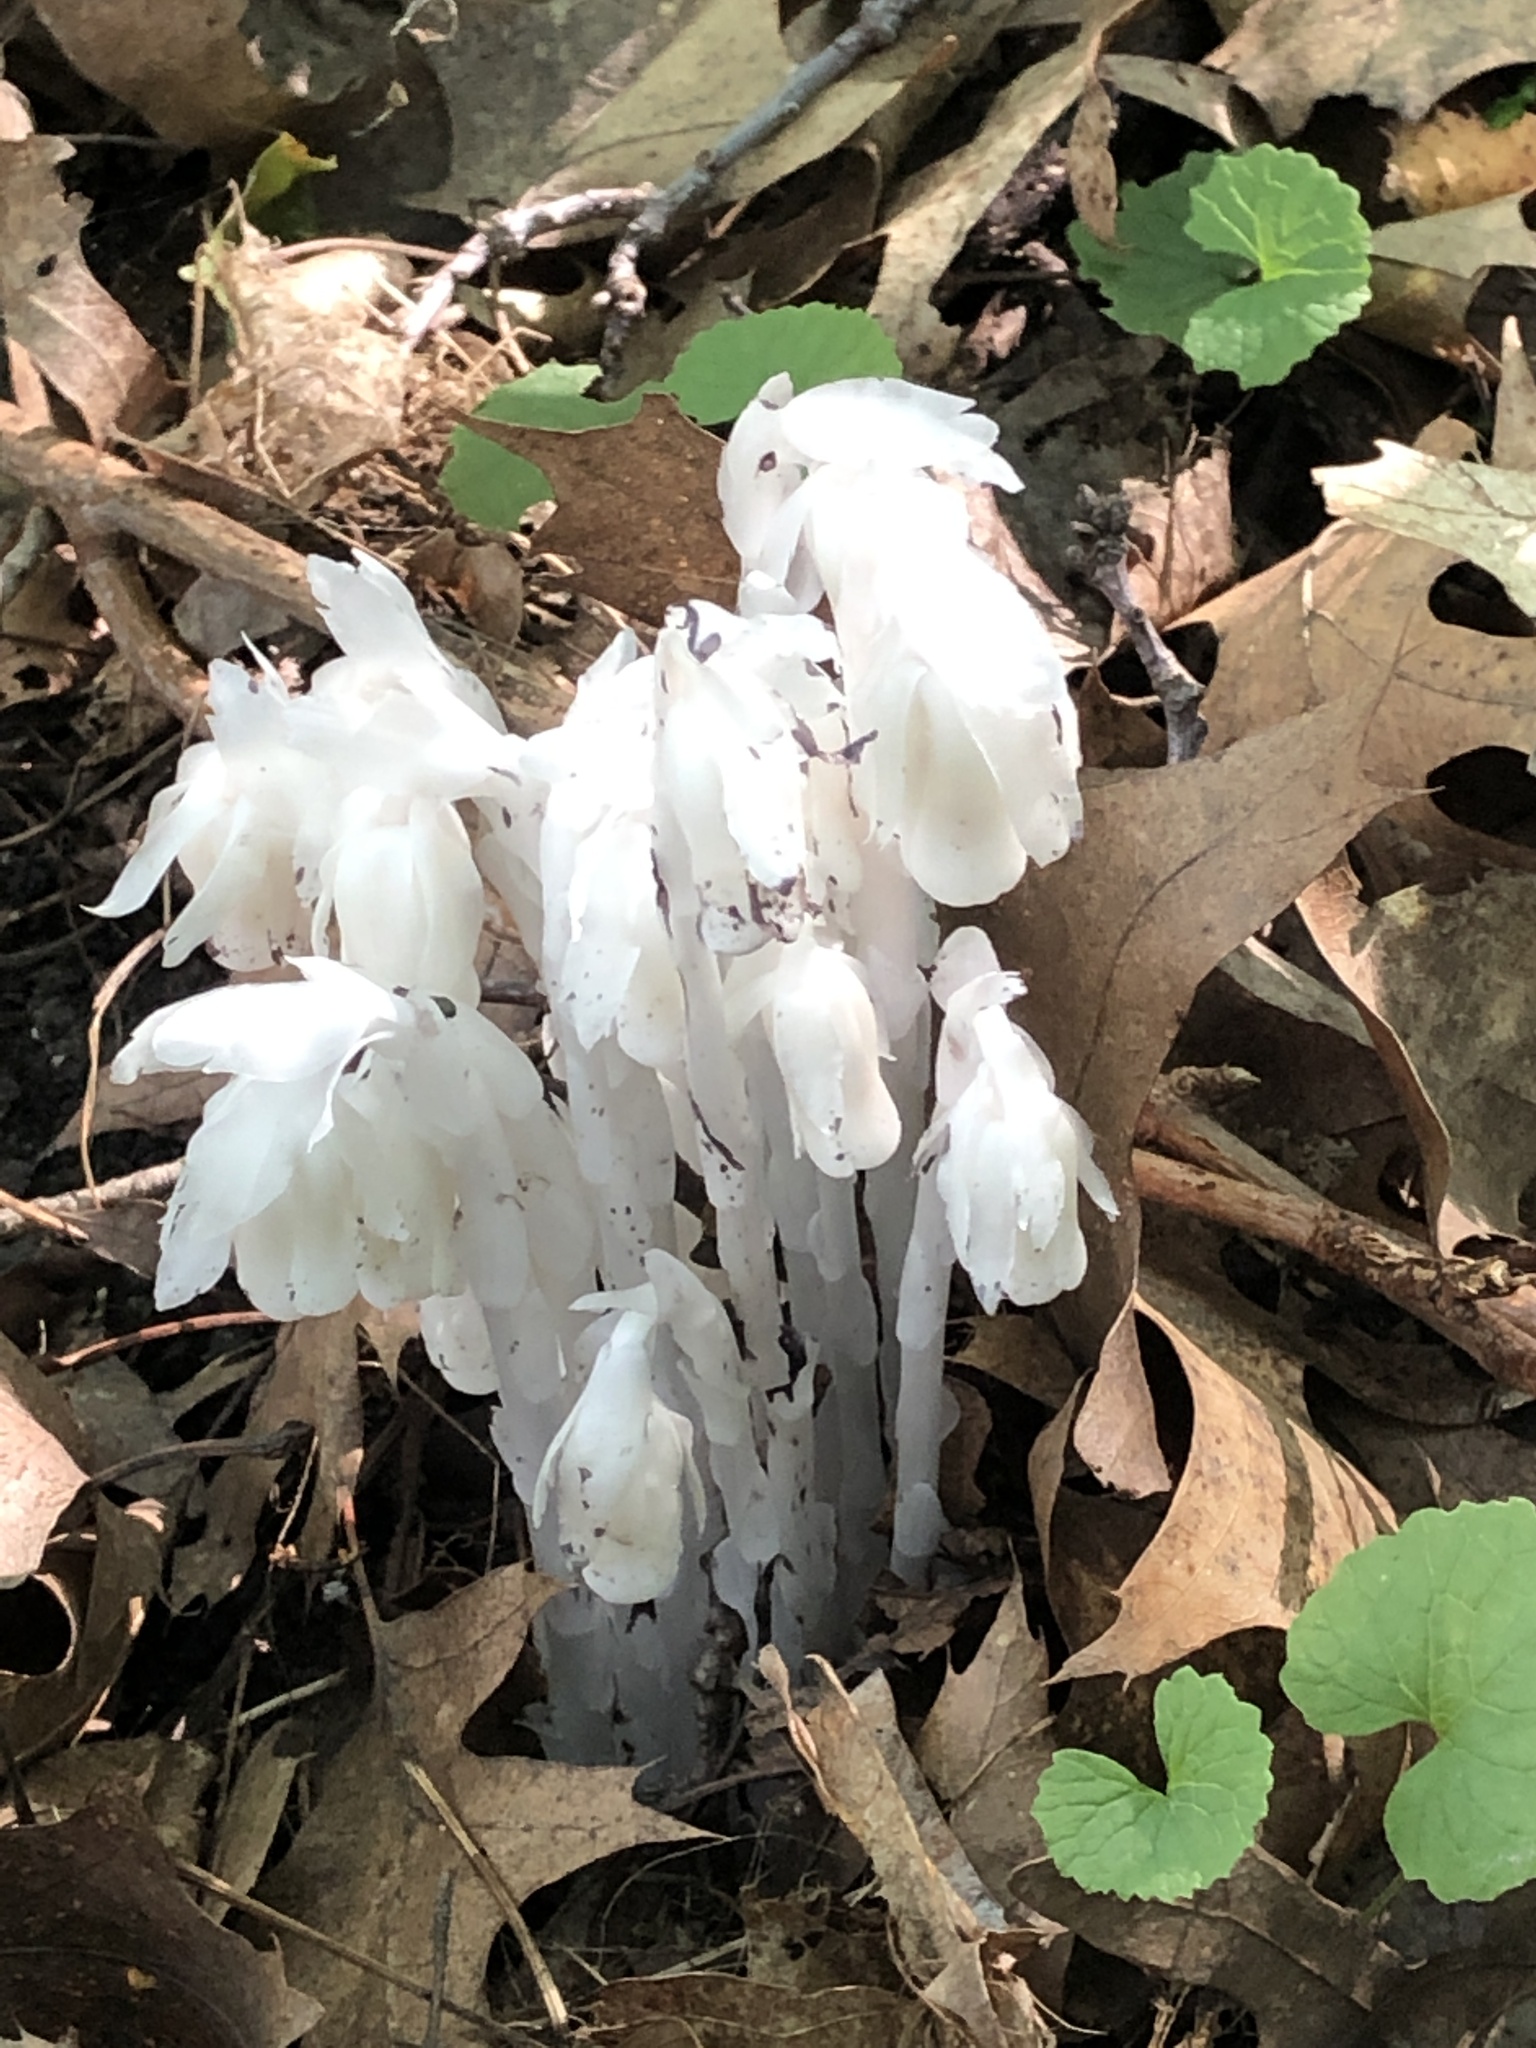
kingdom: Plantae
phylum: Tracheophyta
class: Magnoliopsida
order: Ericales
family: Ericaceae
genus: Monotropa
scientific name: Monotropa uniflora
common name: Convulsion root
